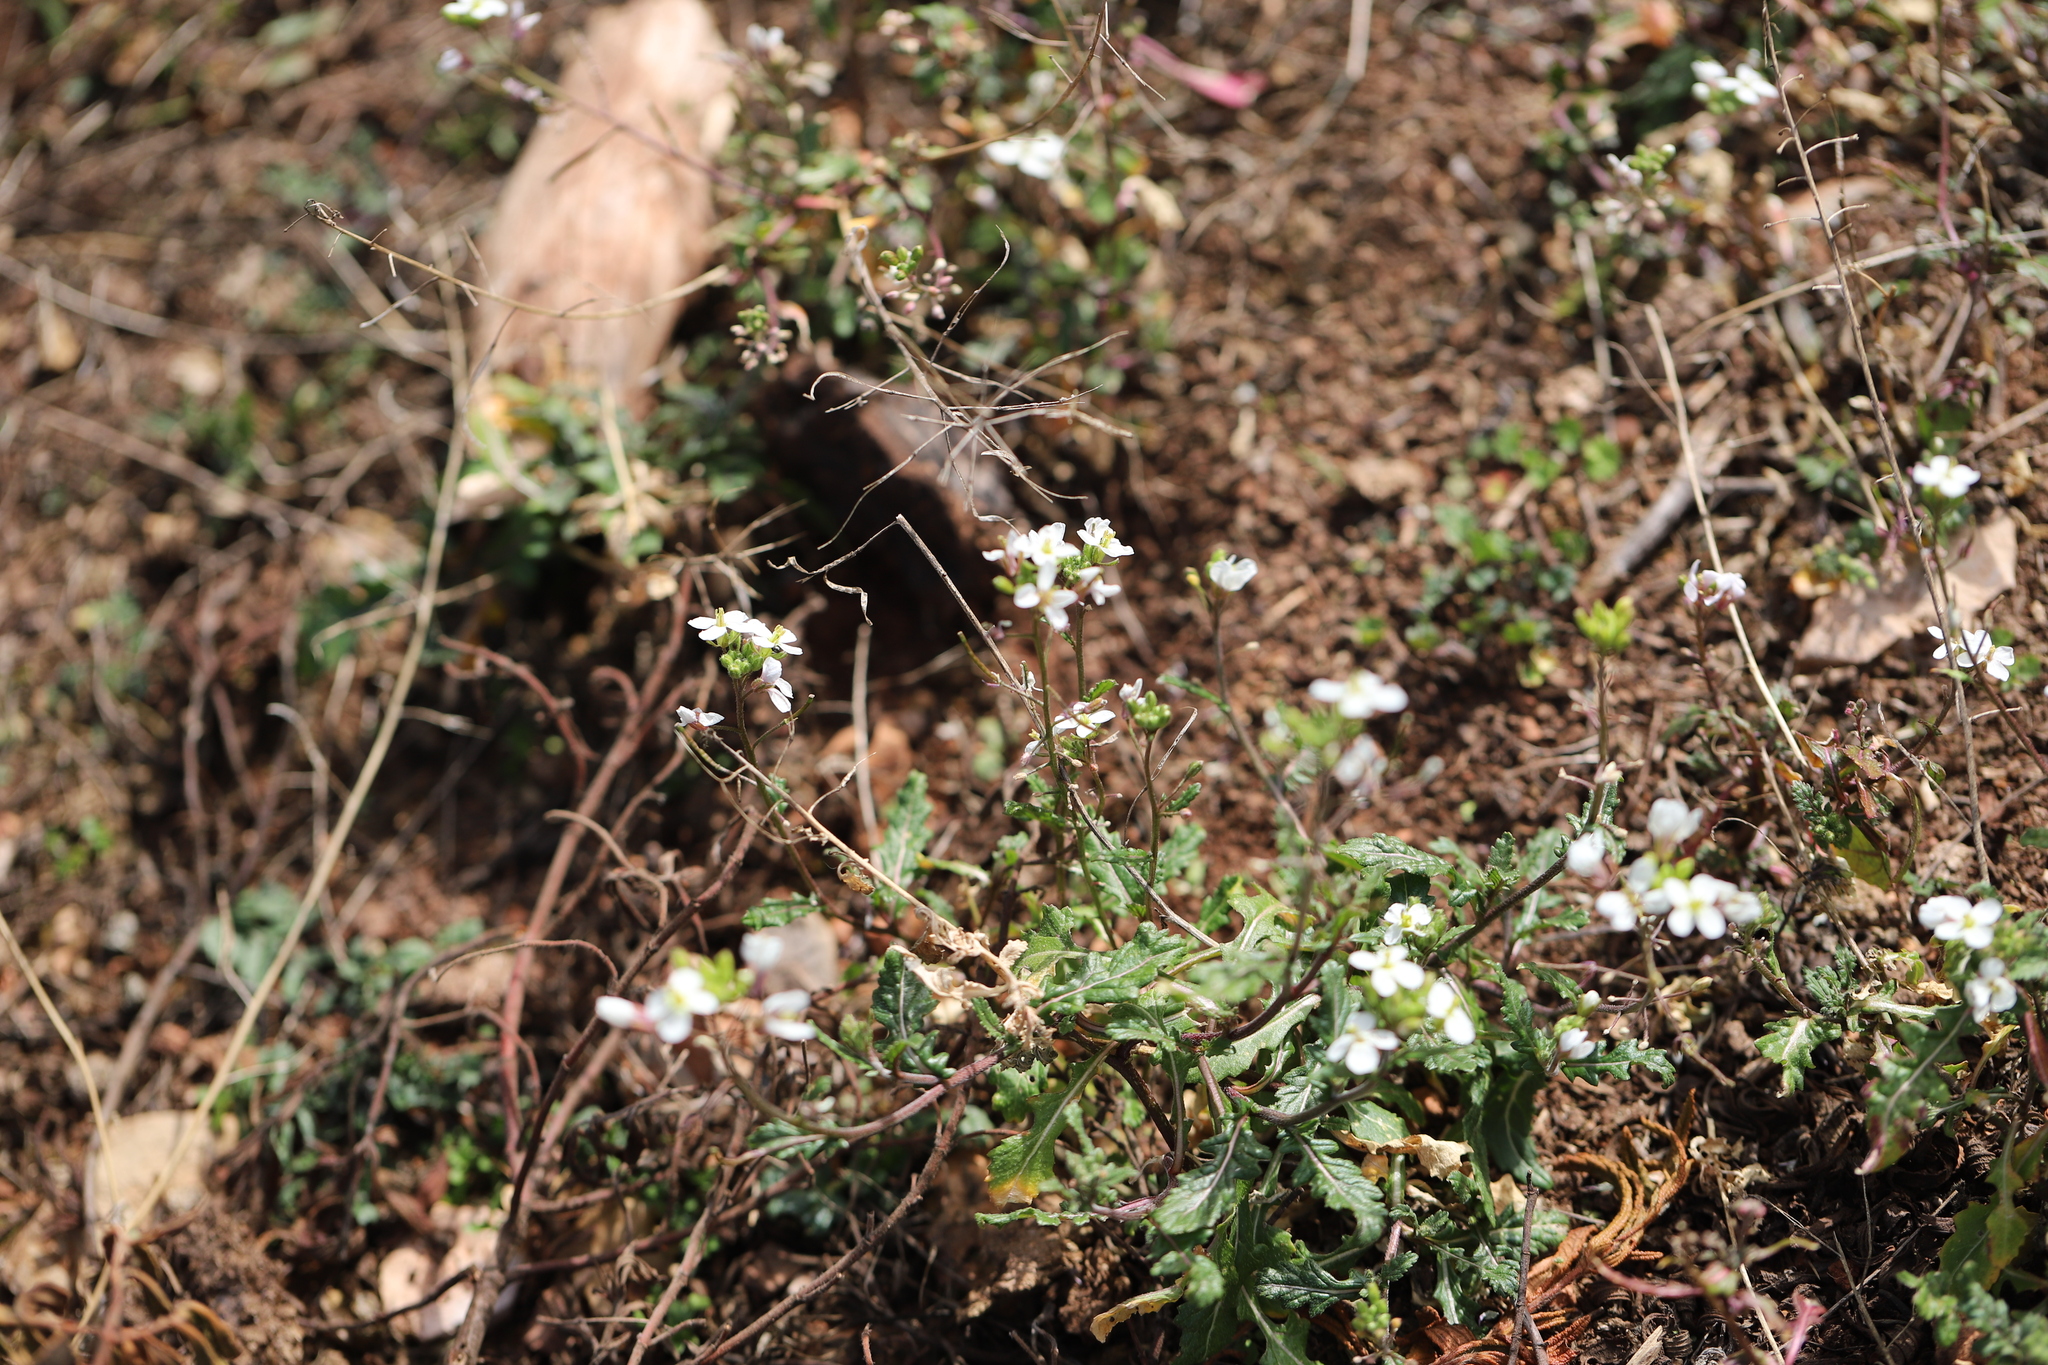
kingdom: Plantae
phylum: Tracheophyta
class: Magnoliopsida
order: Brassicales
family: Brassicaceae
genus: Diplotaxis
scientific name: Diplotaxis erucoides
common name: White rocket
